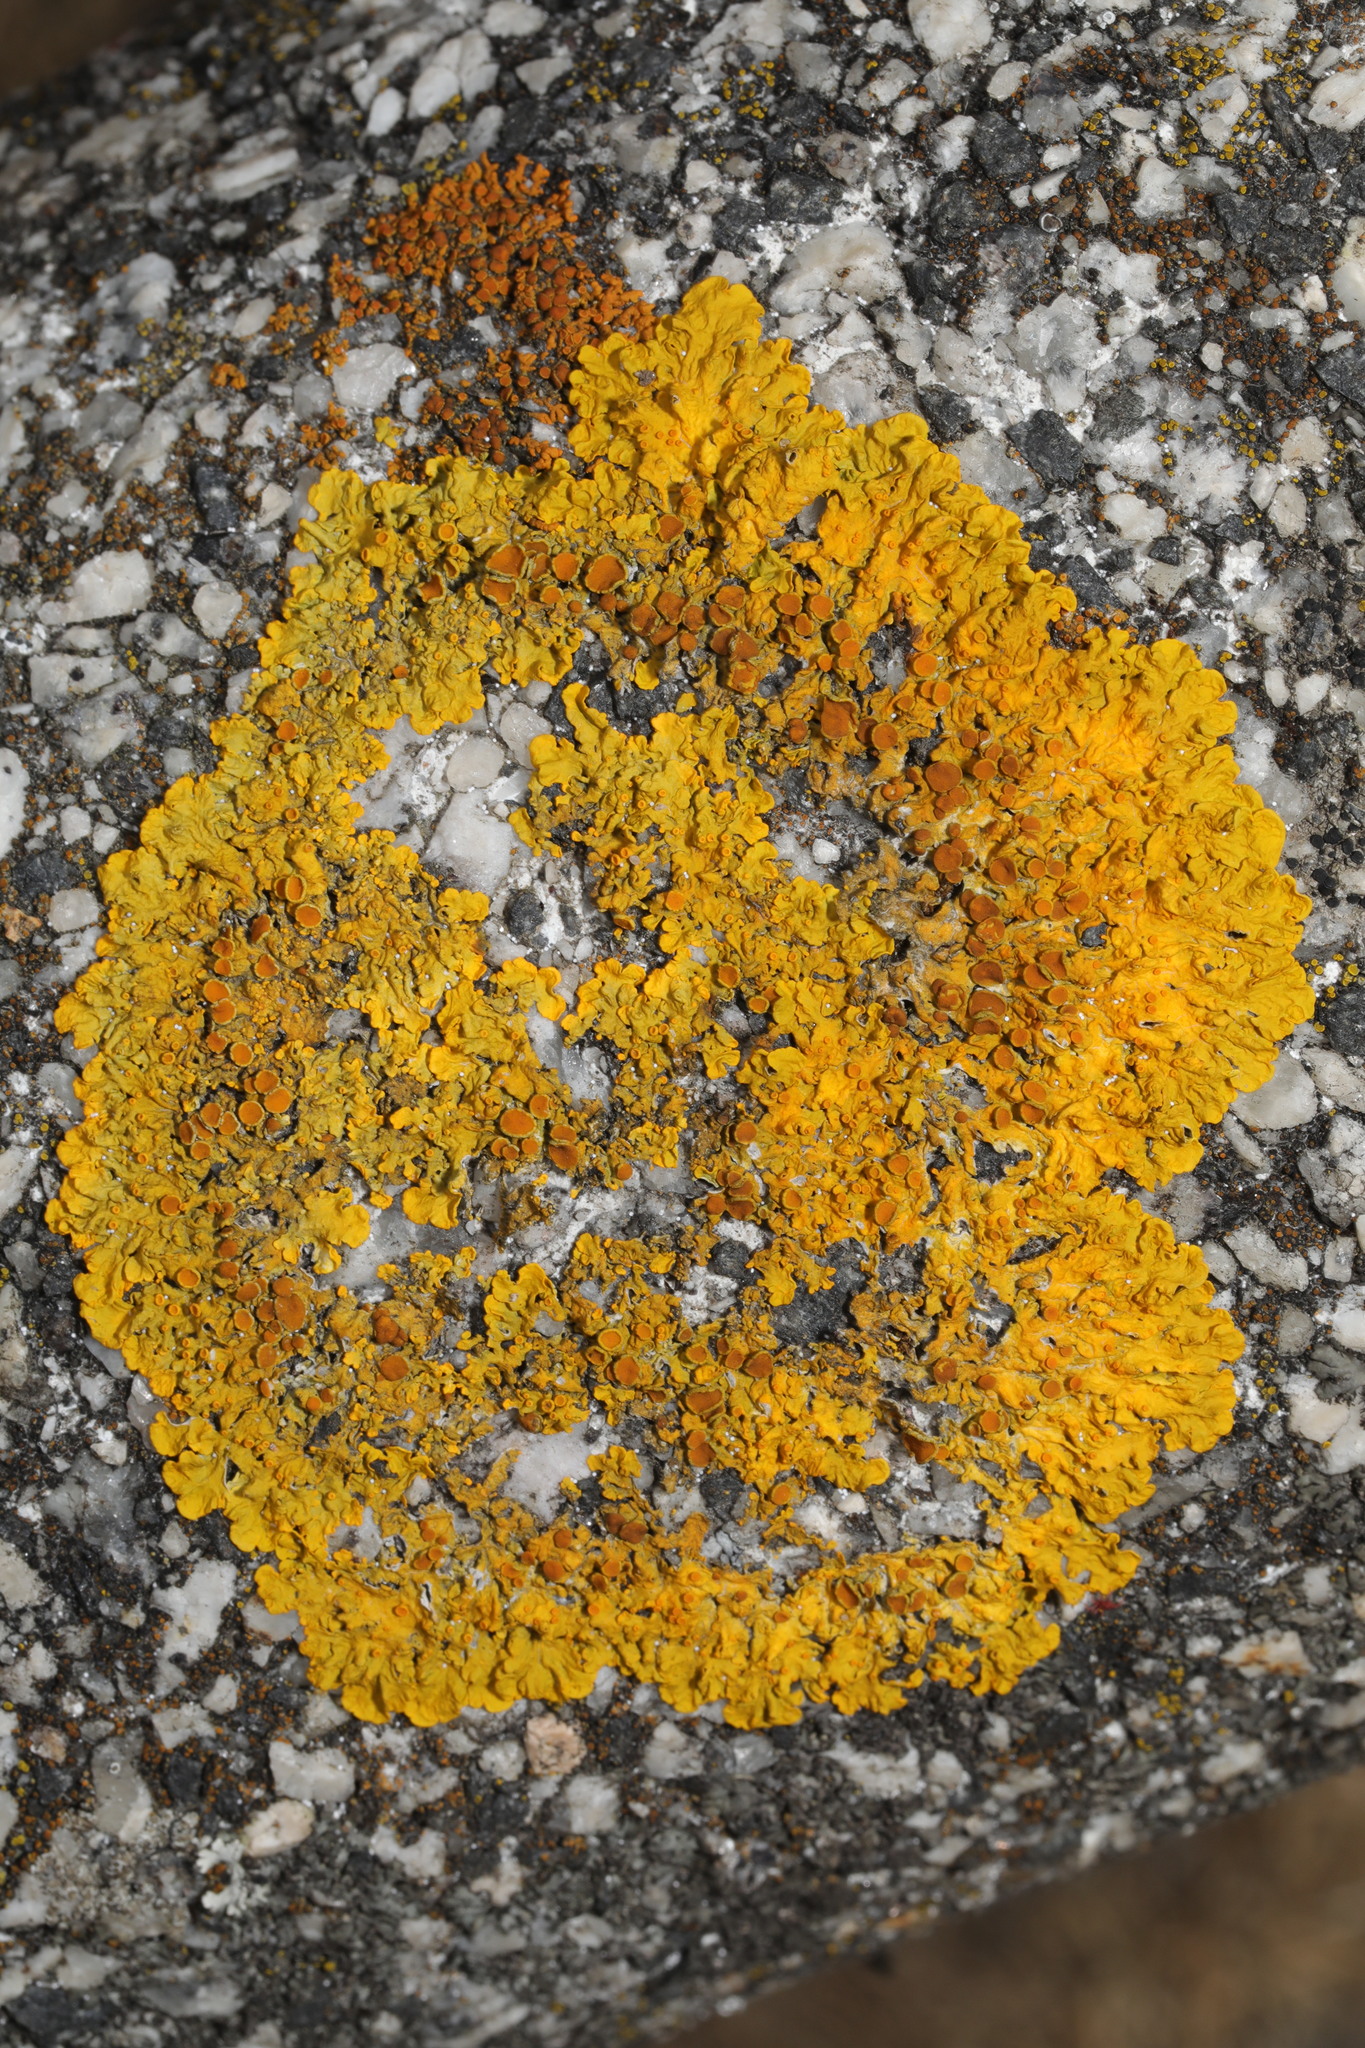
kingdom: Fungi
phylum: Ascomycota
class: Lecanoromycetes
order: Teloschistales
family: Teloschistaceae
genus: Xanthoria
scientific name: Xanthoria parietina
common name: Common orange lichen
